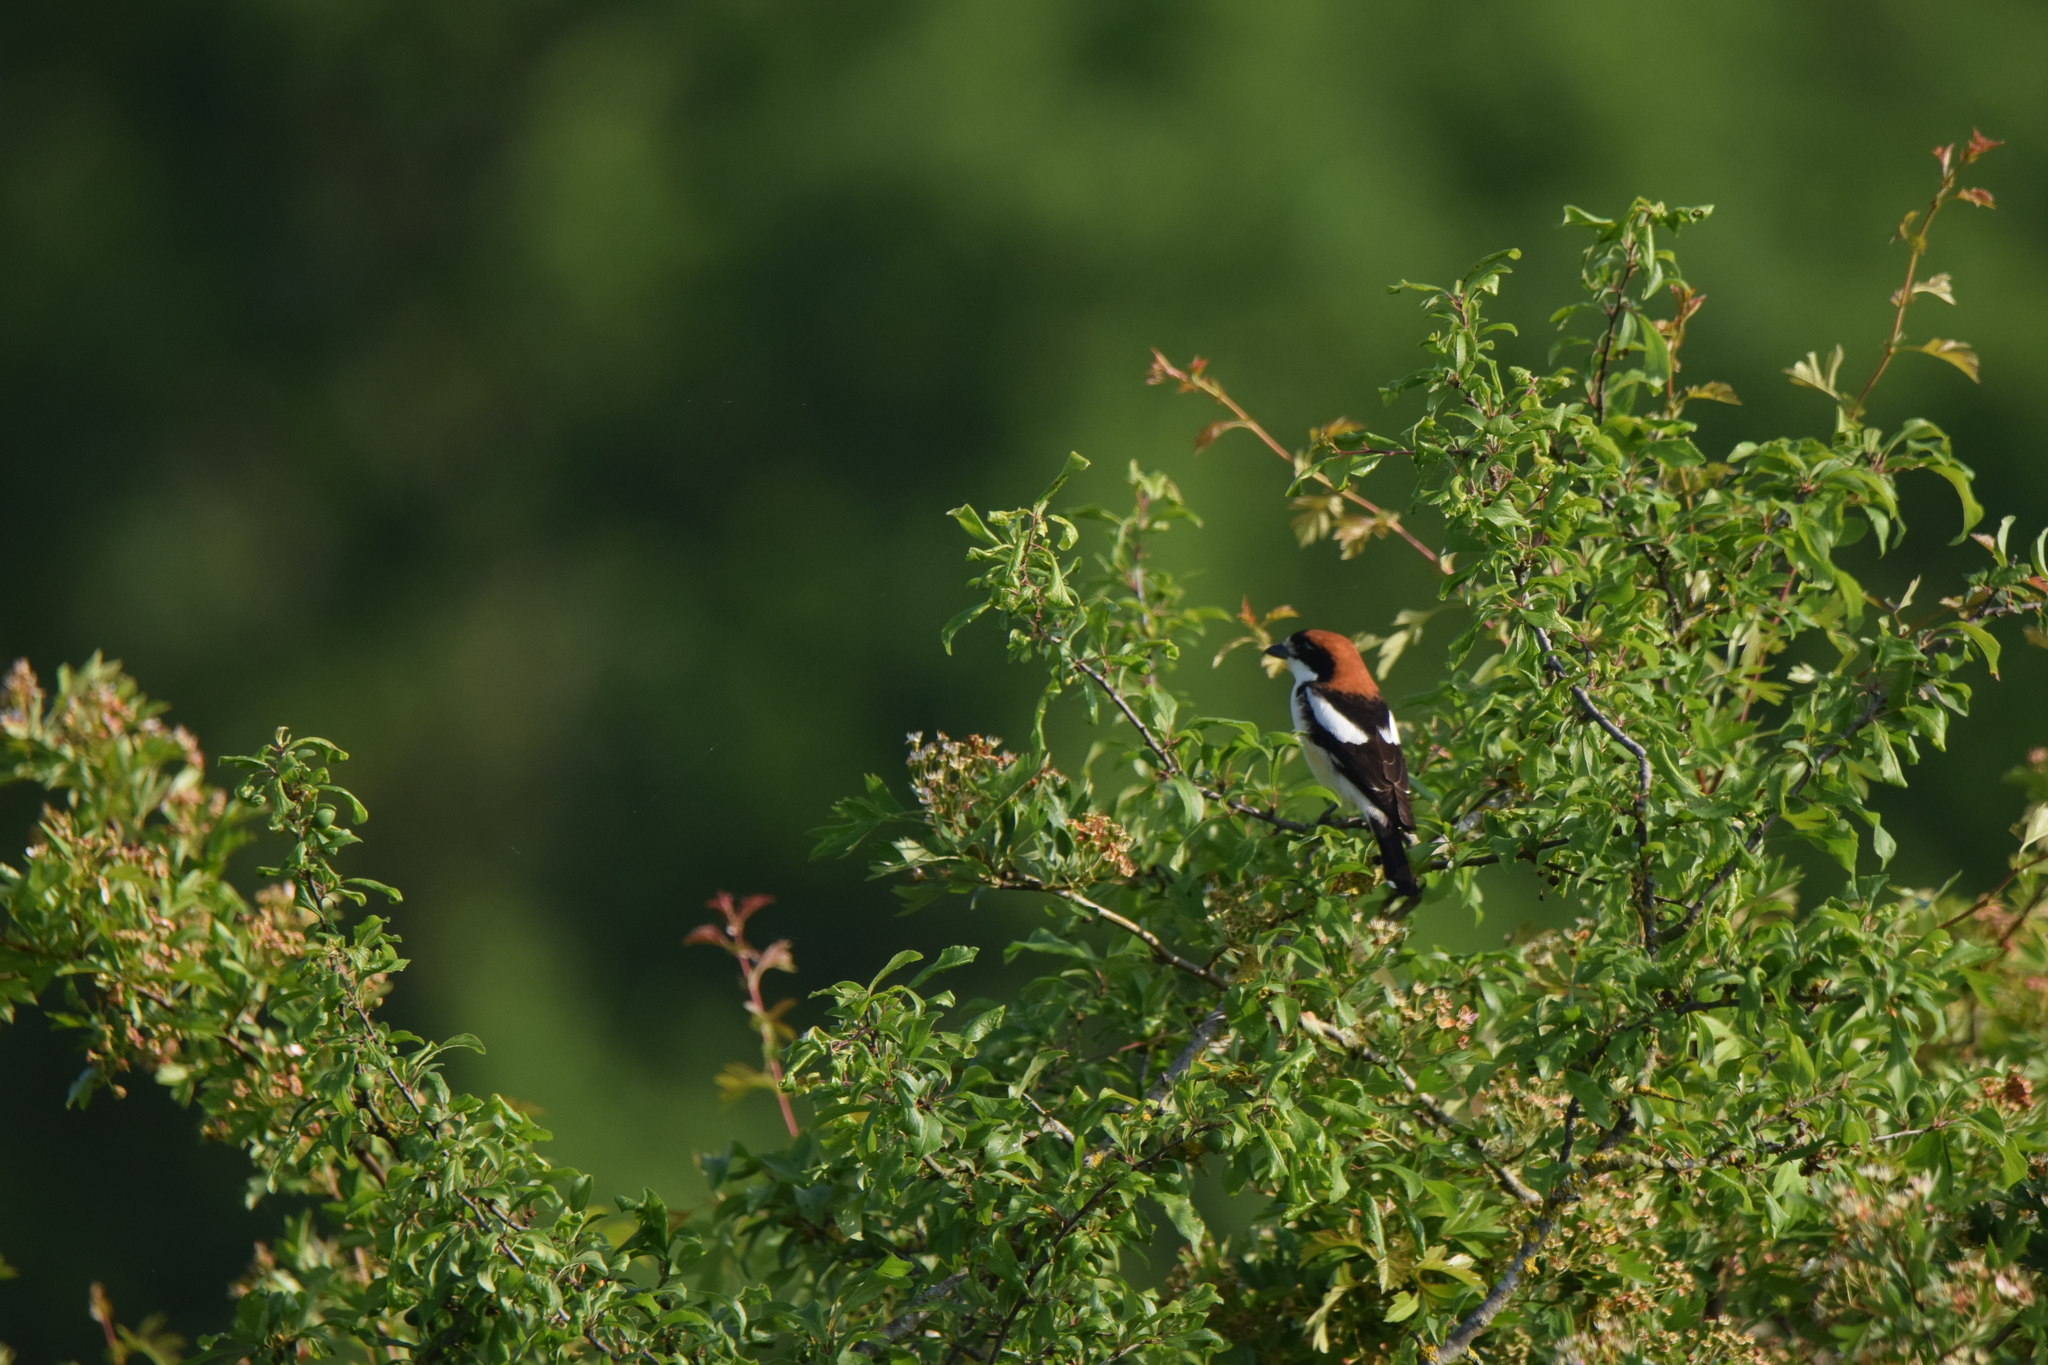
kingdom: Animalia
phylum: Chordata
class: Aves
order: Passeriformes
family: Laniidae
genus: Lanius
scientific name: Lanius senator
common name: Woodchat shrike
